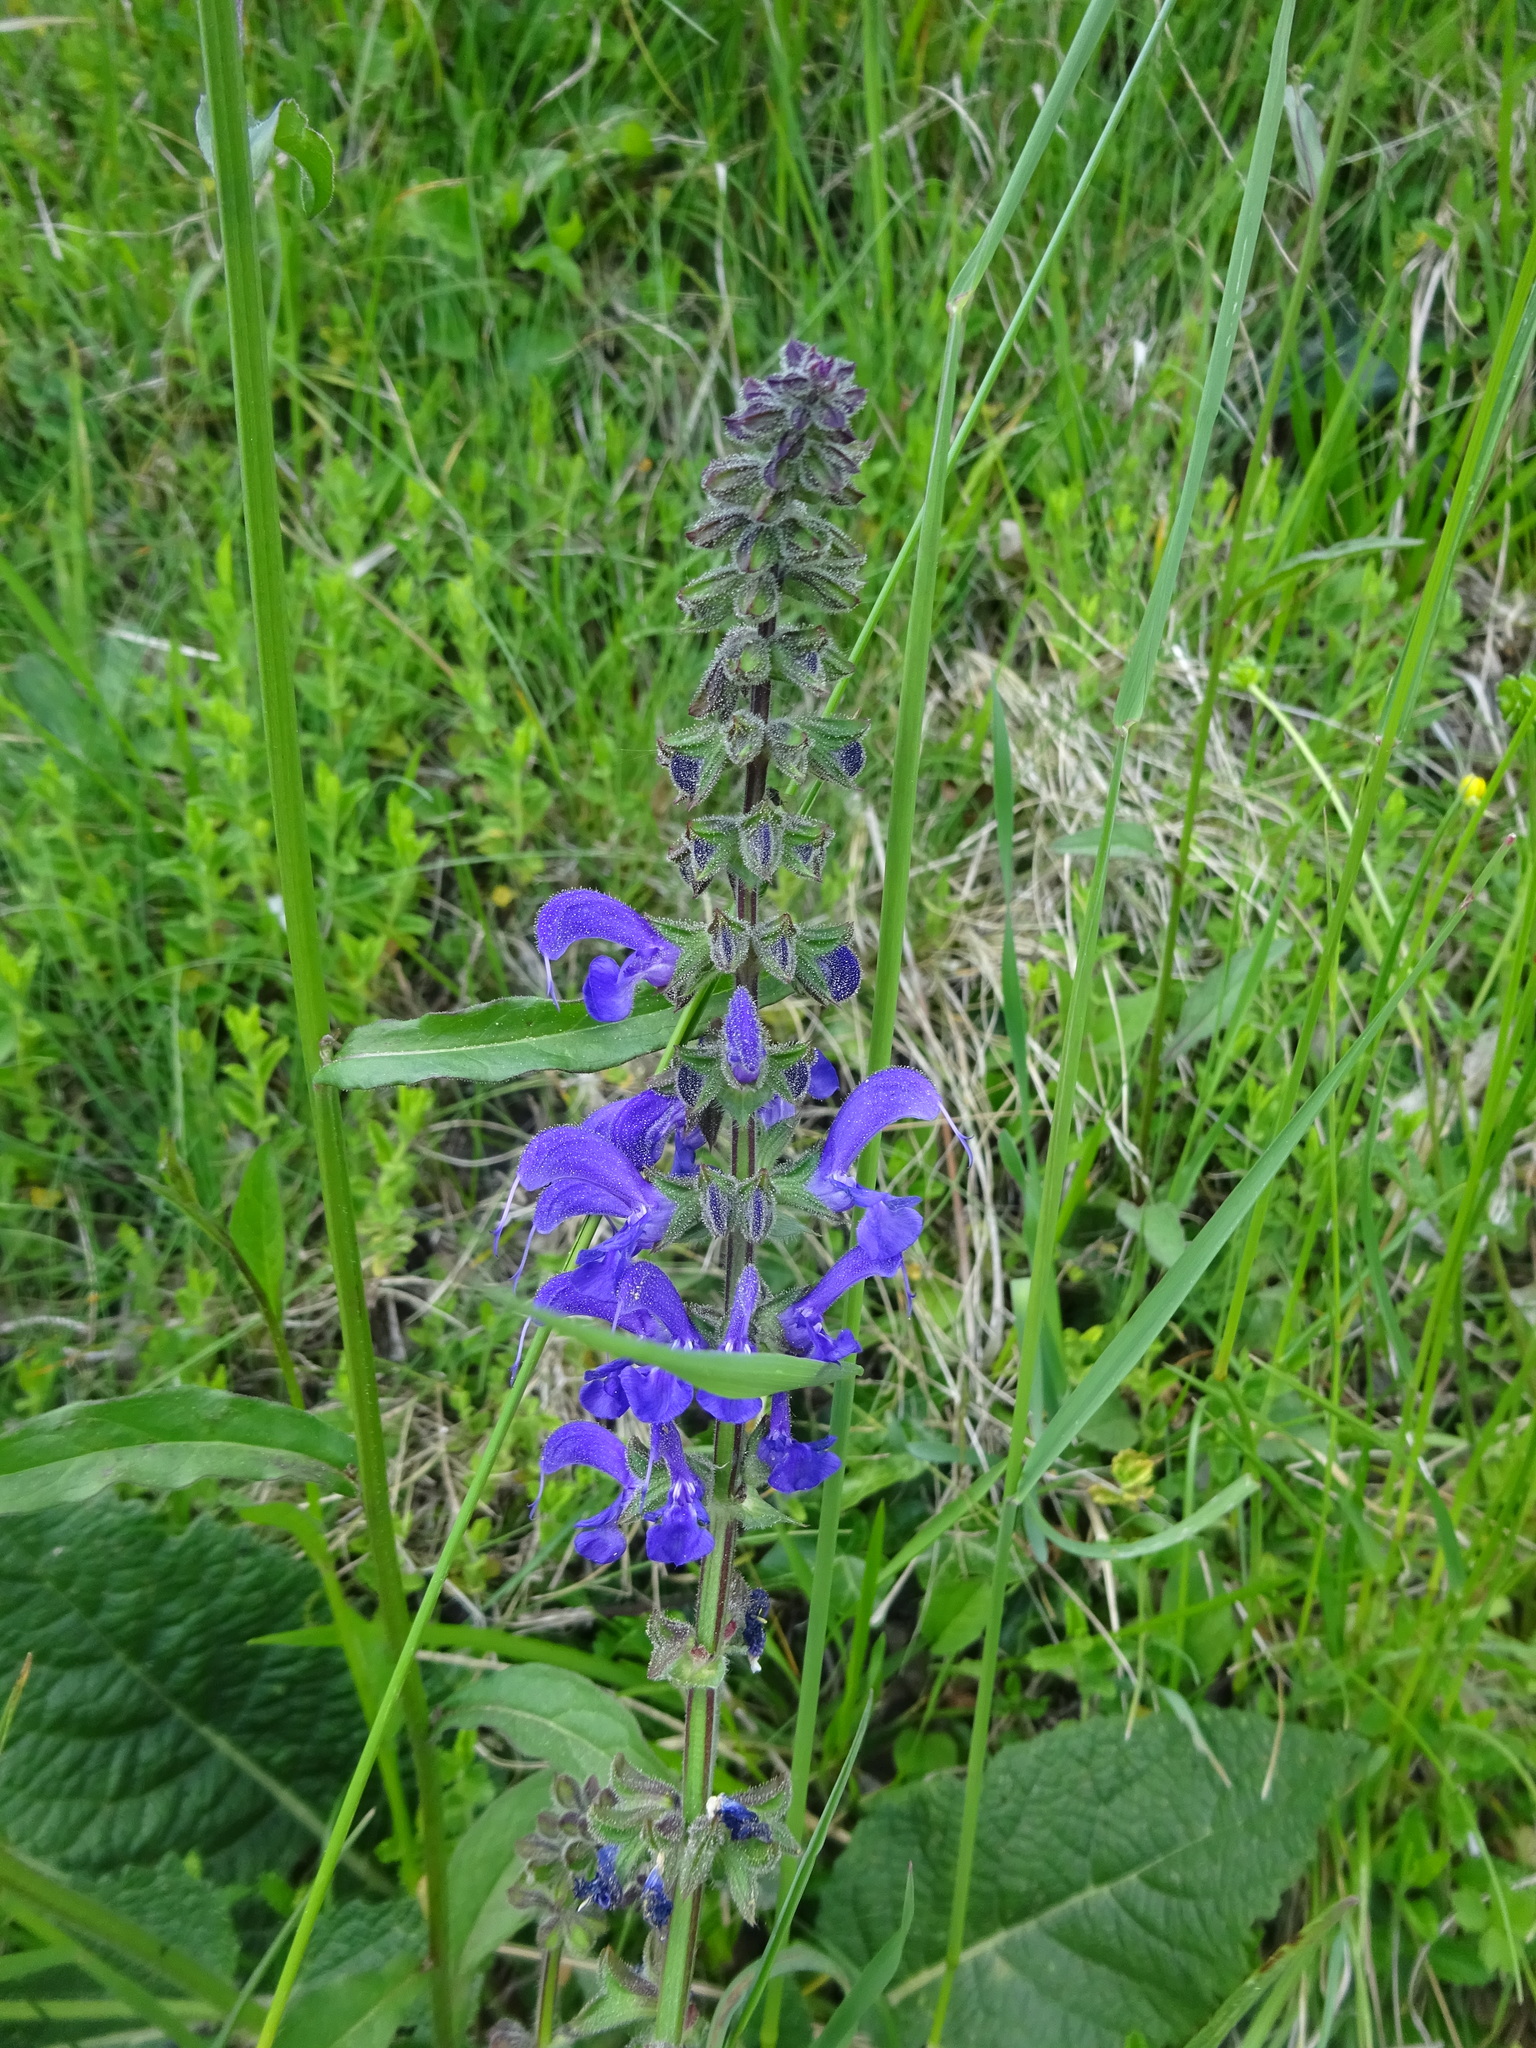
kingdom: Plantae
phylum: Tracheophyta
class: Magnoliopsida
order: Lamiales
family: Lamiaceae
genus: Salvia
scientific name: Salvia pratensis
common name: Meadow sage
